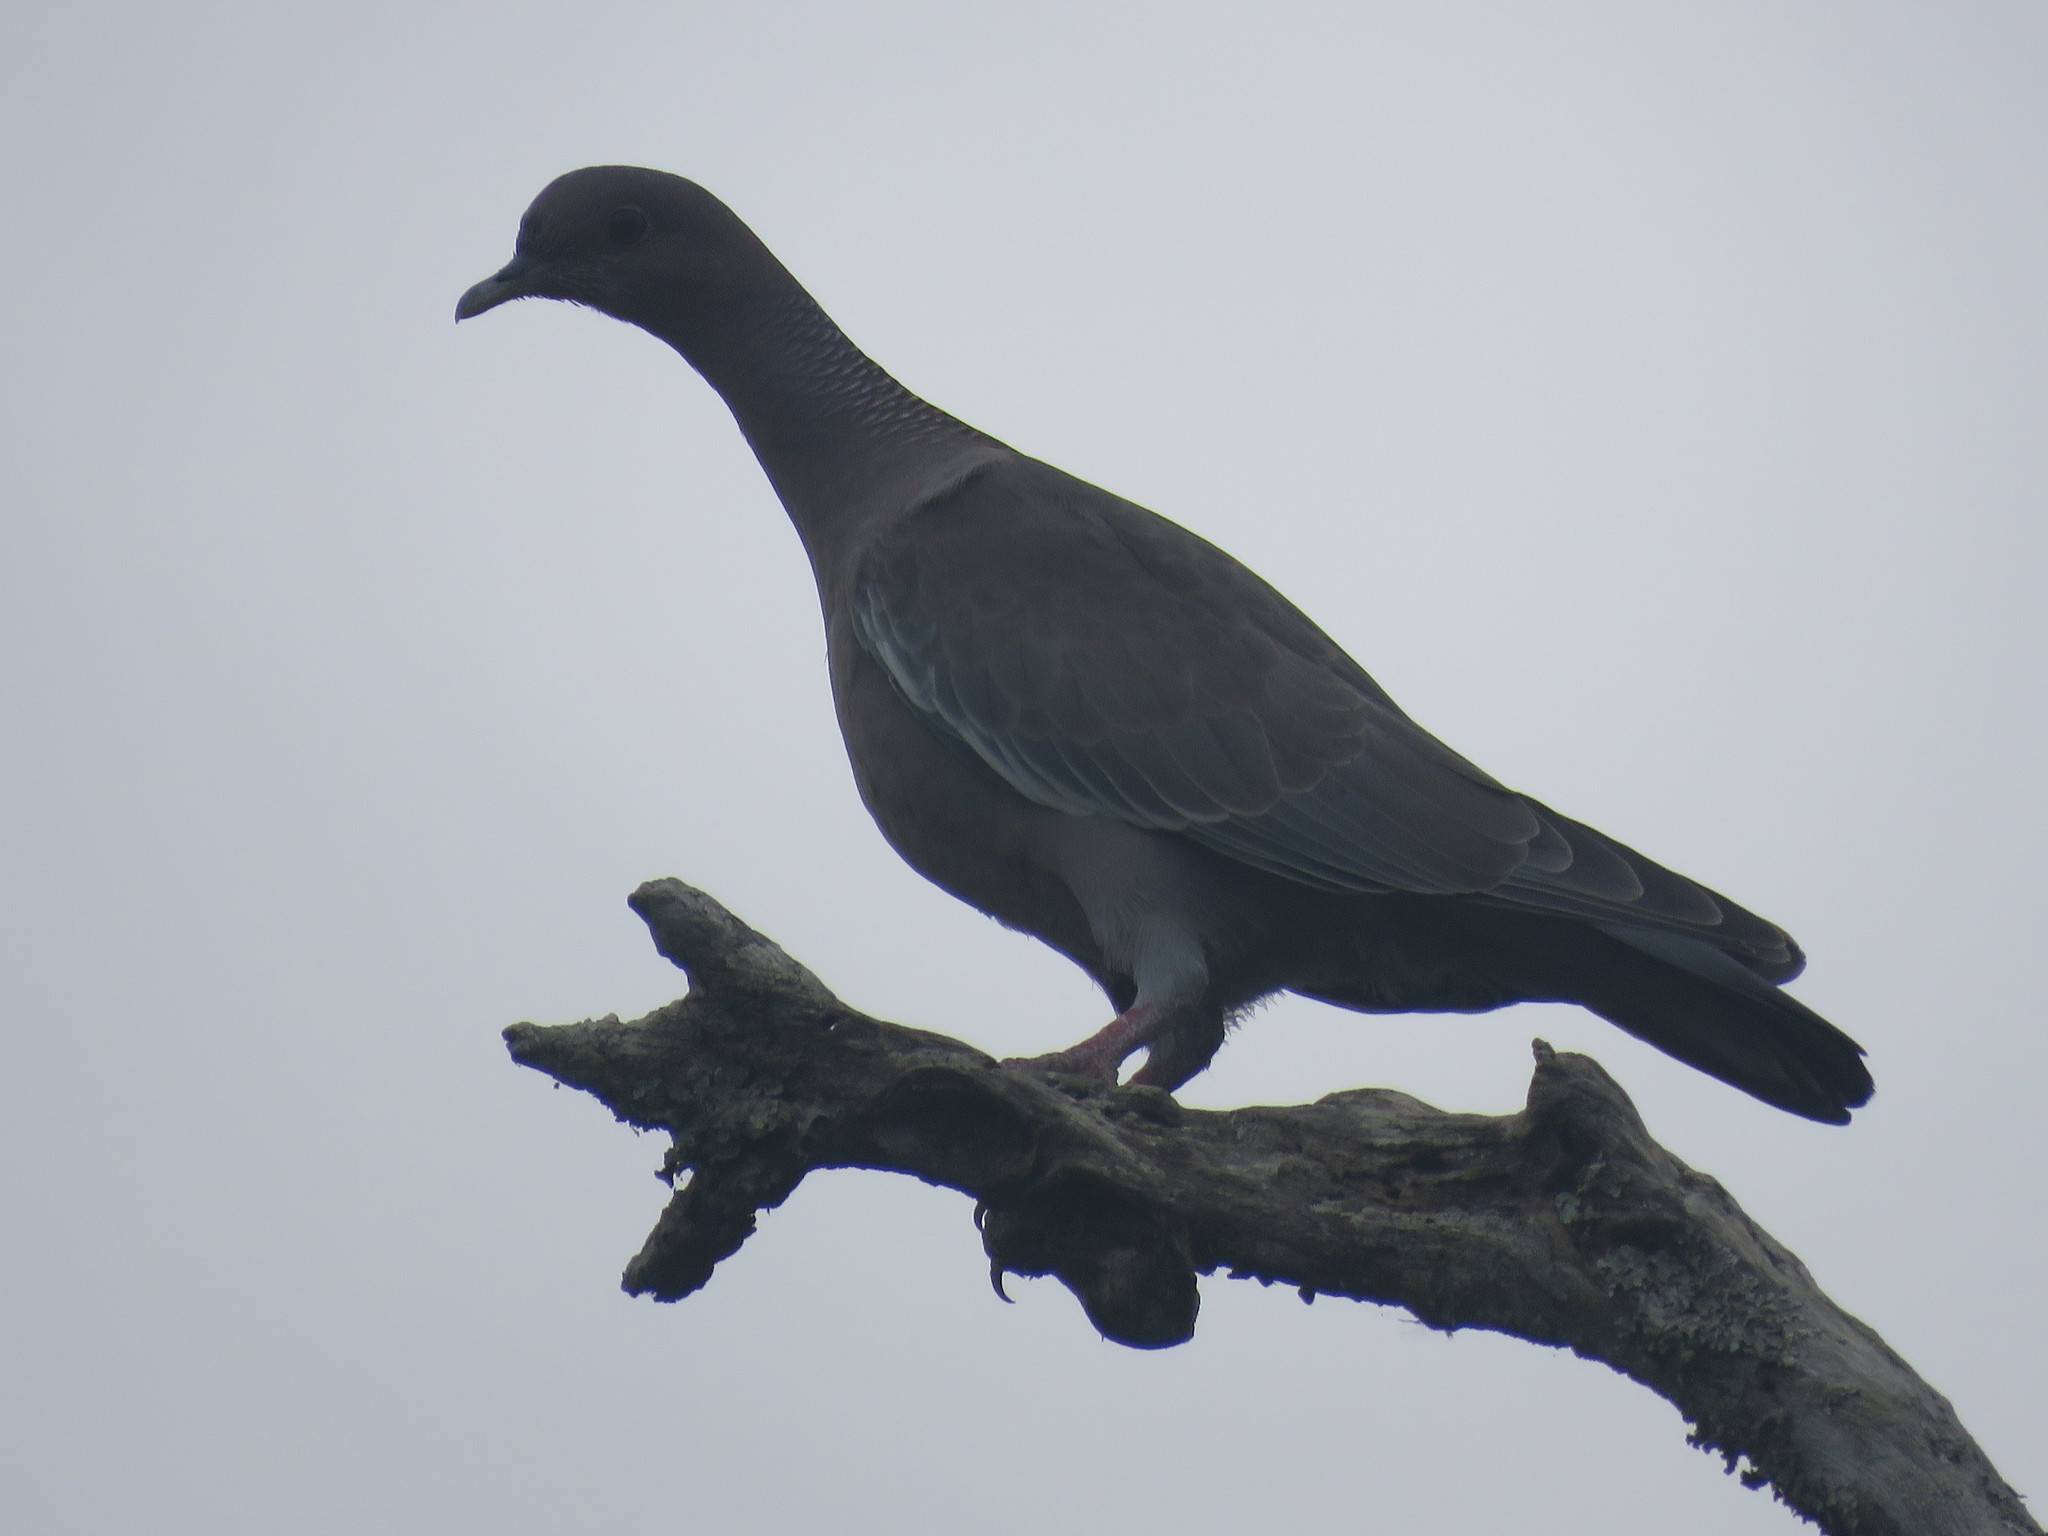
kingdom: Animalia
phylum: Chordata
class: Aves
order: Columbiformes
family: Columbidae
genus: Patagioenas
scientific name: Patagioenas picazuro
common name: Picazuro pigeon
